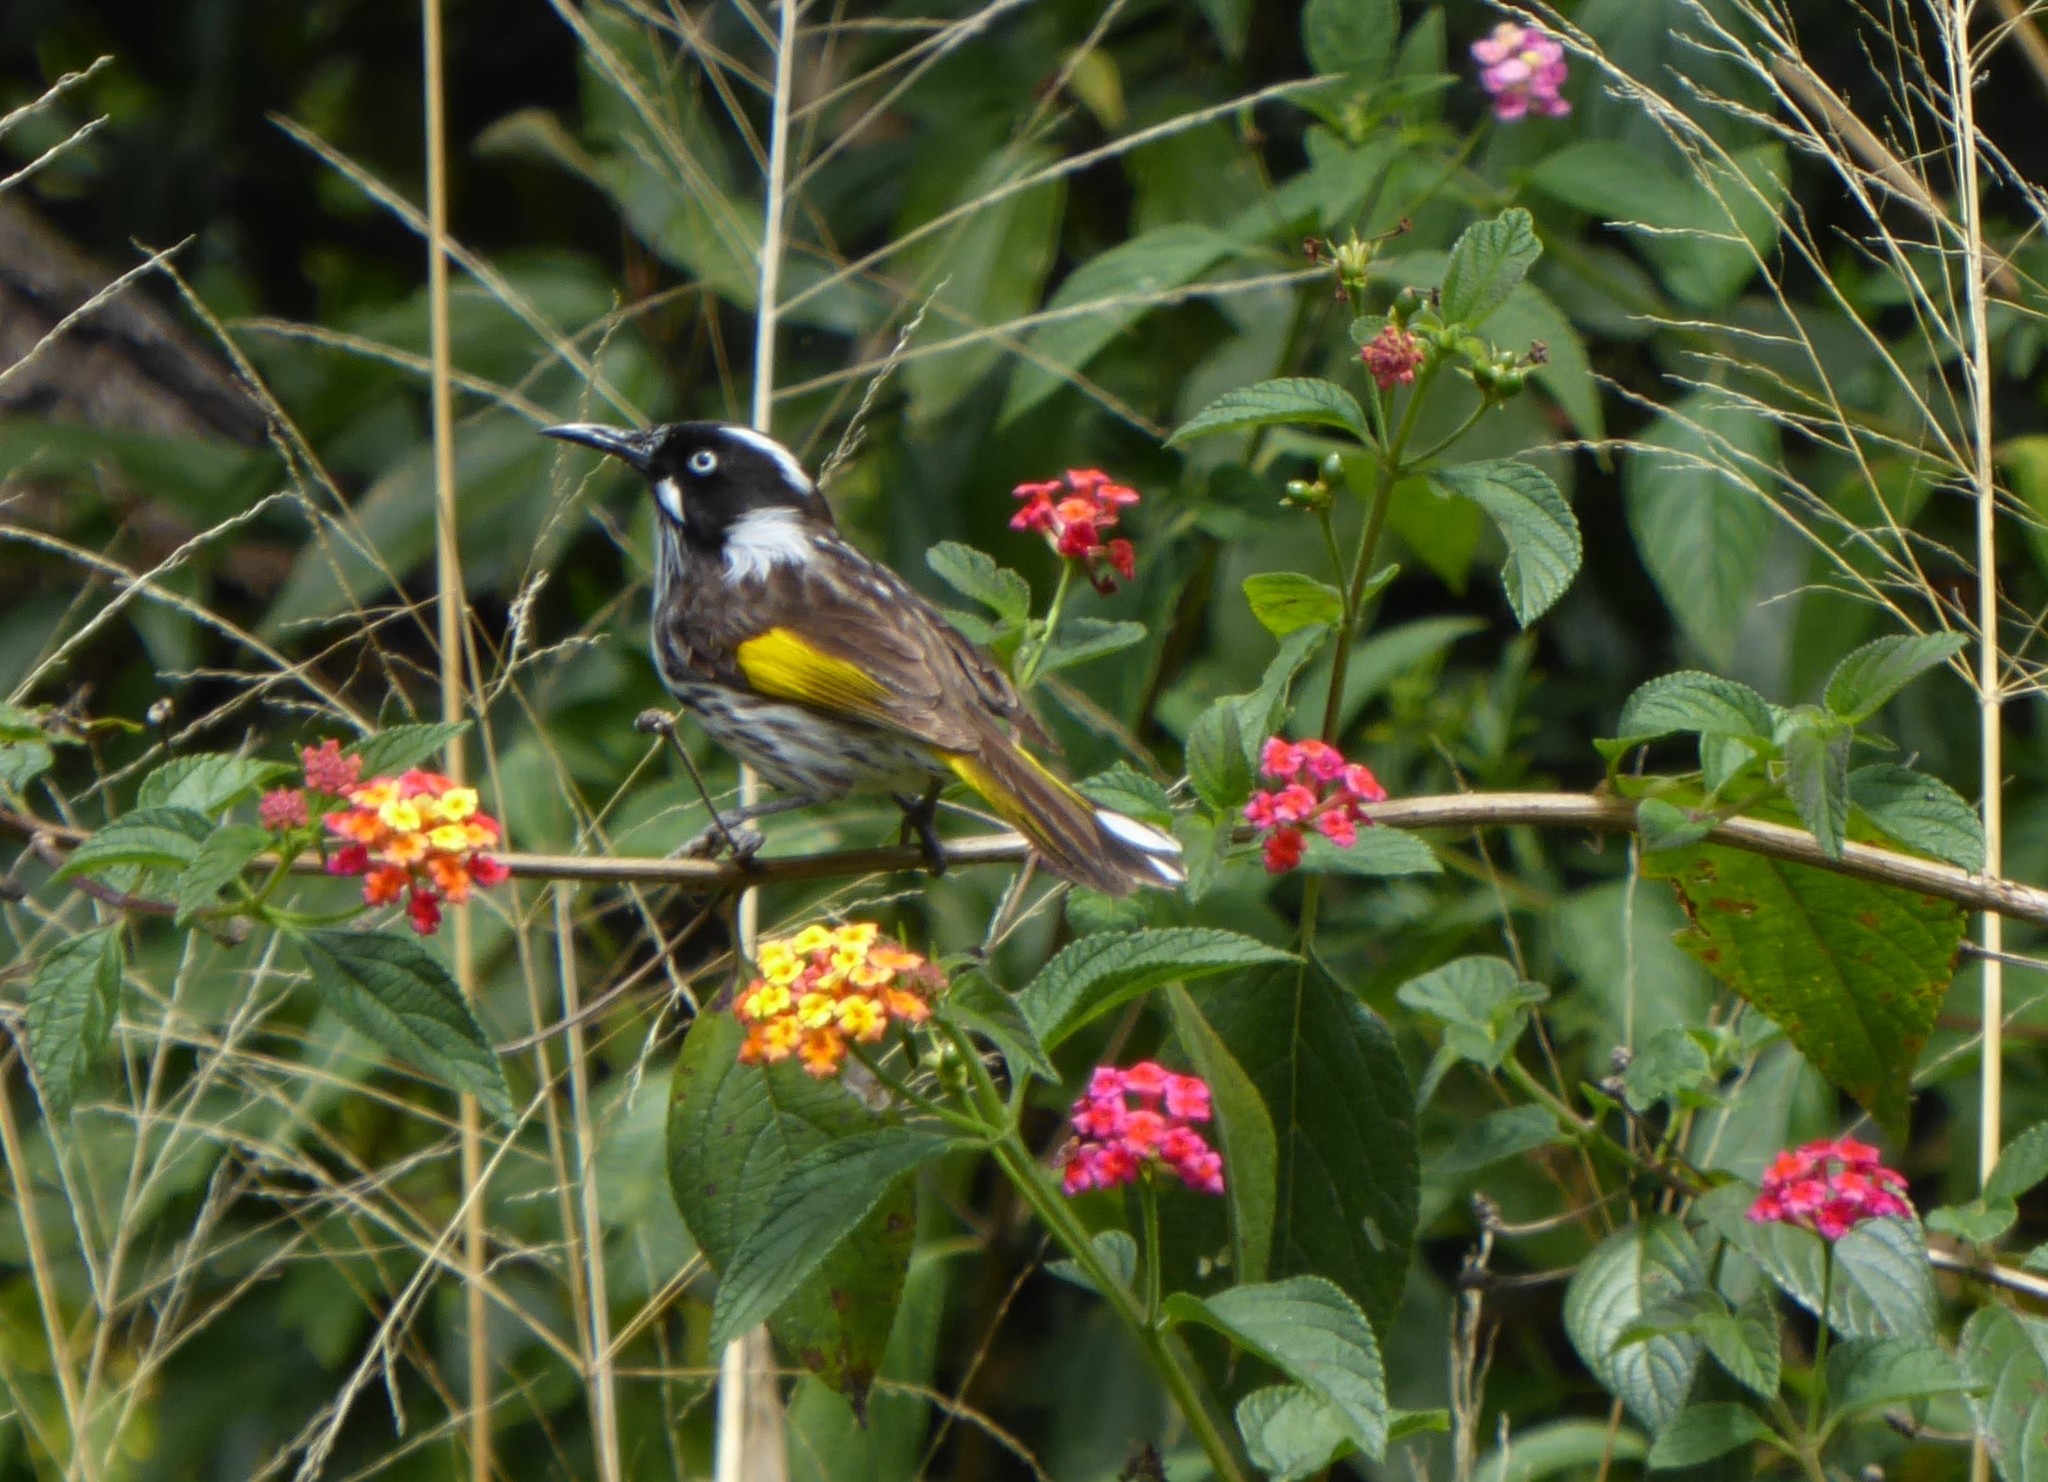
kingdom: Animalia
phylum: Chordata
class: Aves
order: Passeriformes
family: Meliphagidae
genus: Phylidonyris
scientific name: Phylidonyris novaehollandiae
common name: New holland honeyeater
